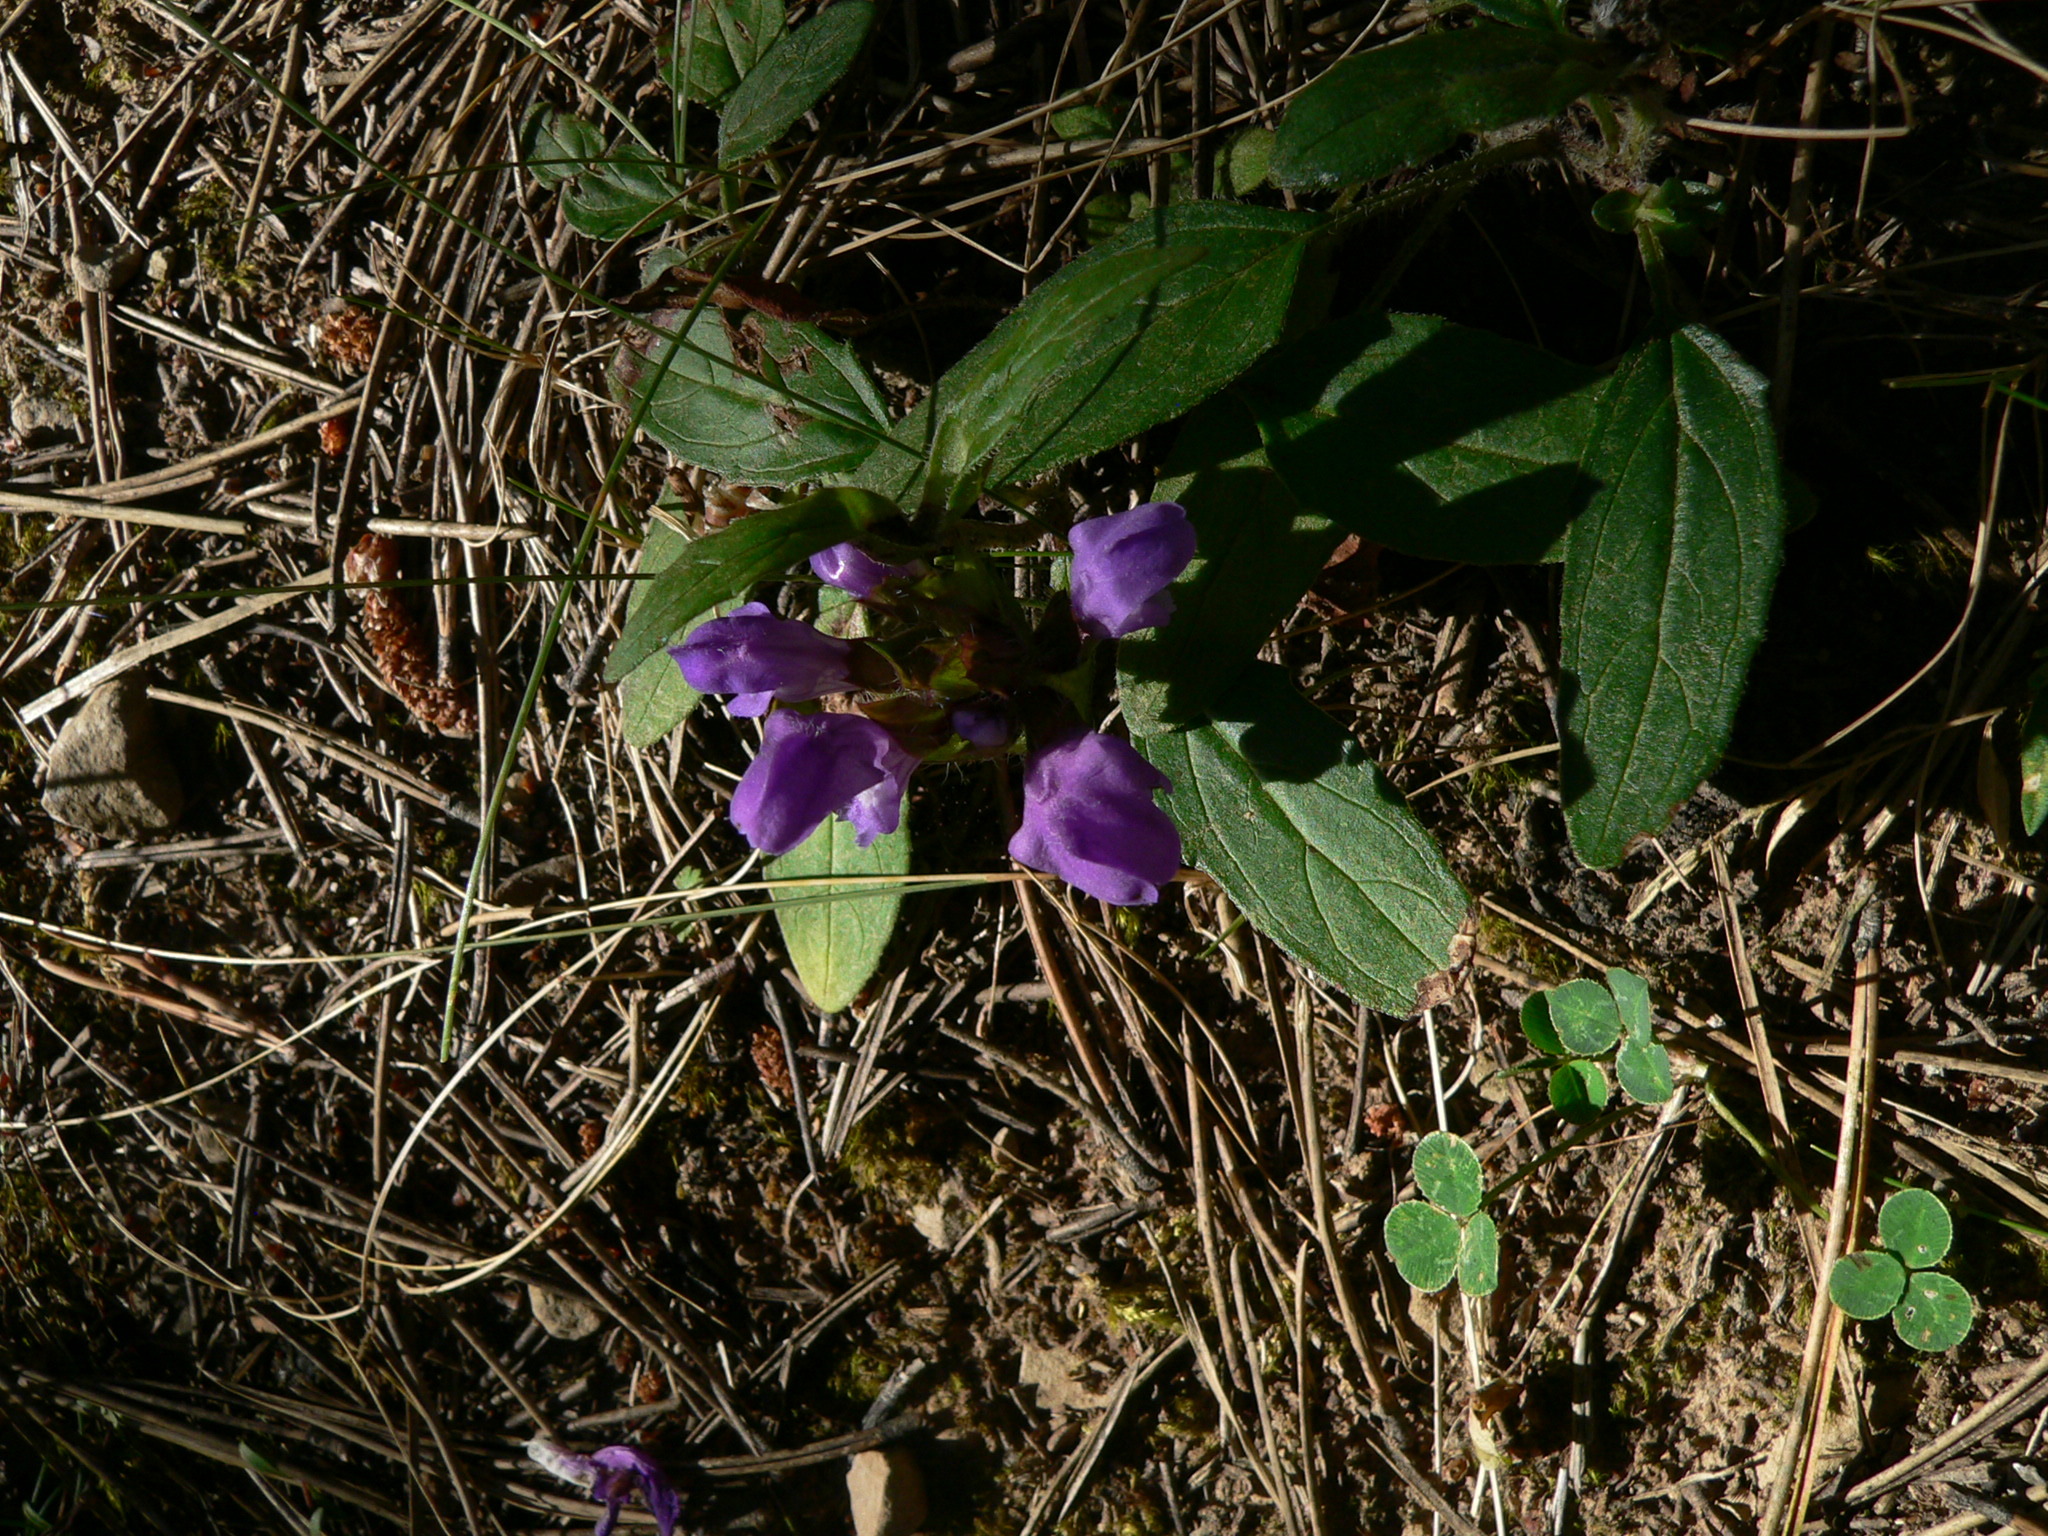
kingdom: Plantae
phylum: Tracheophyta
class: Magnoliopsida
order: Lamiales
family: Lamiaceae
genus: Prunella
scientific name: Prunella vulgaris
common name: Heal-all
